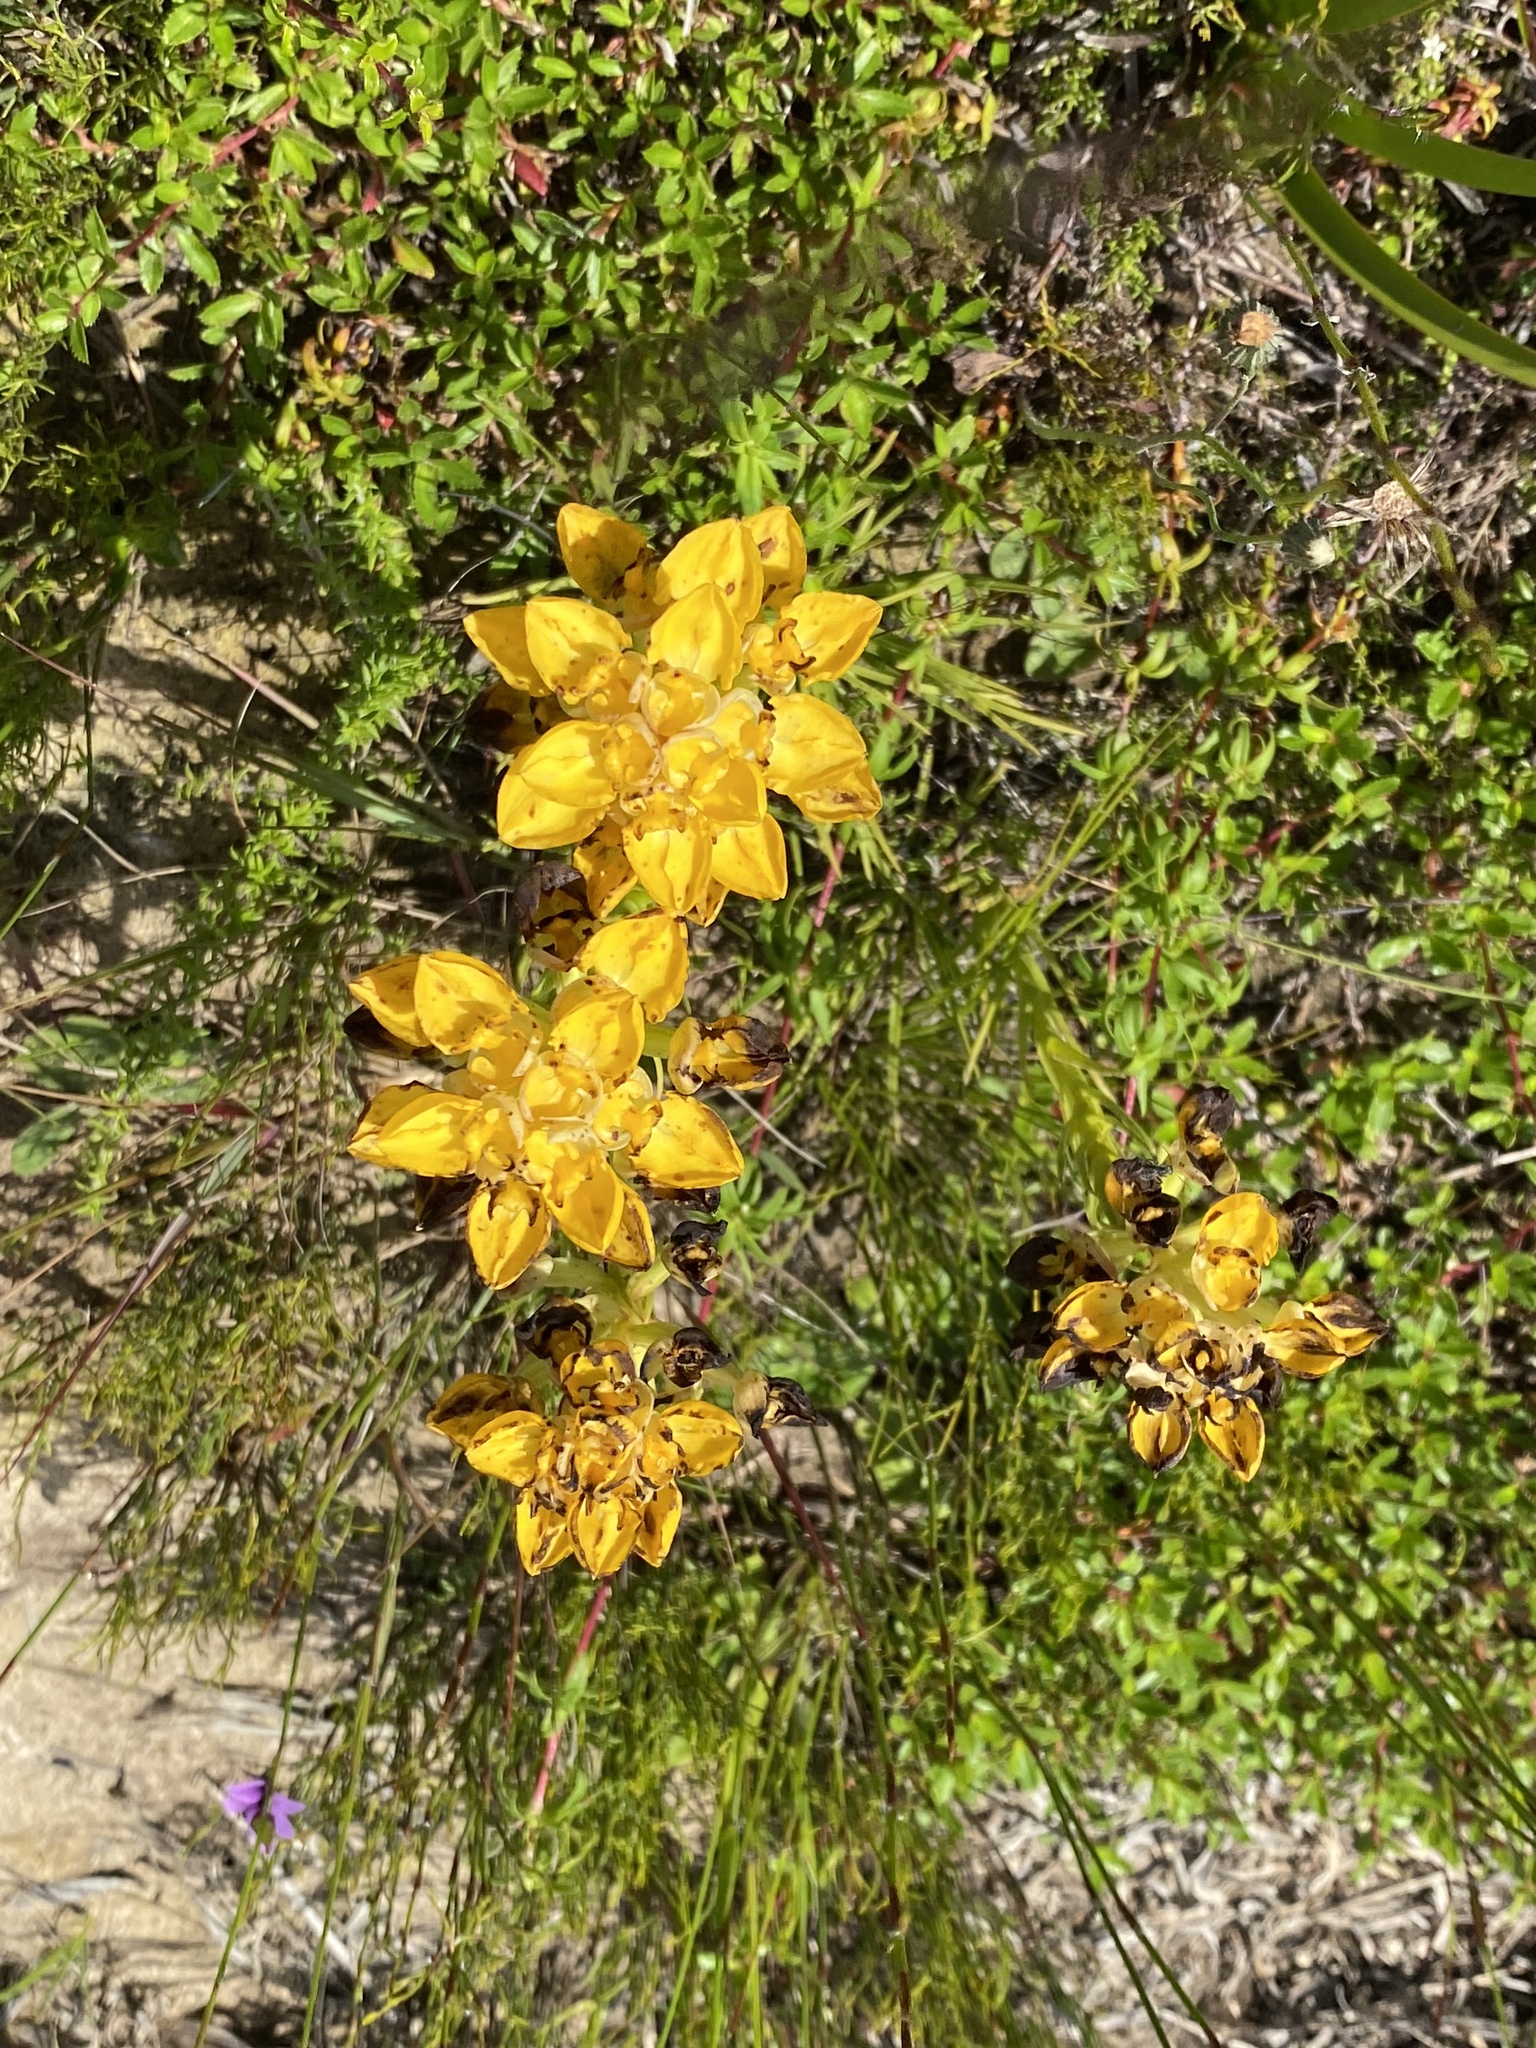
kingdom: Plantae
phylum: Tracheophyta
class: Liliopsida
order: Asparagales
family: Orchidaceae
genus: Ceratandra
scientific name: Ceratandra grandiflora
